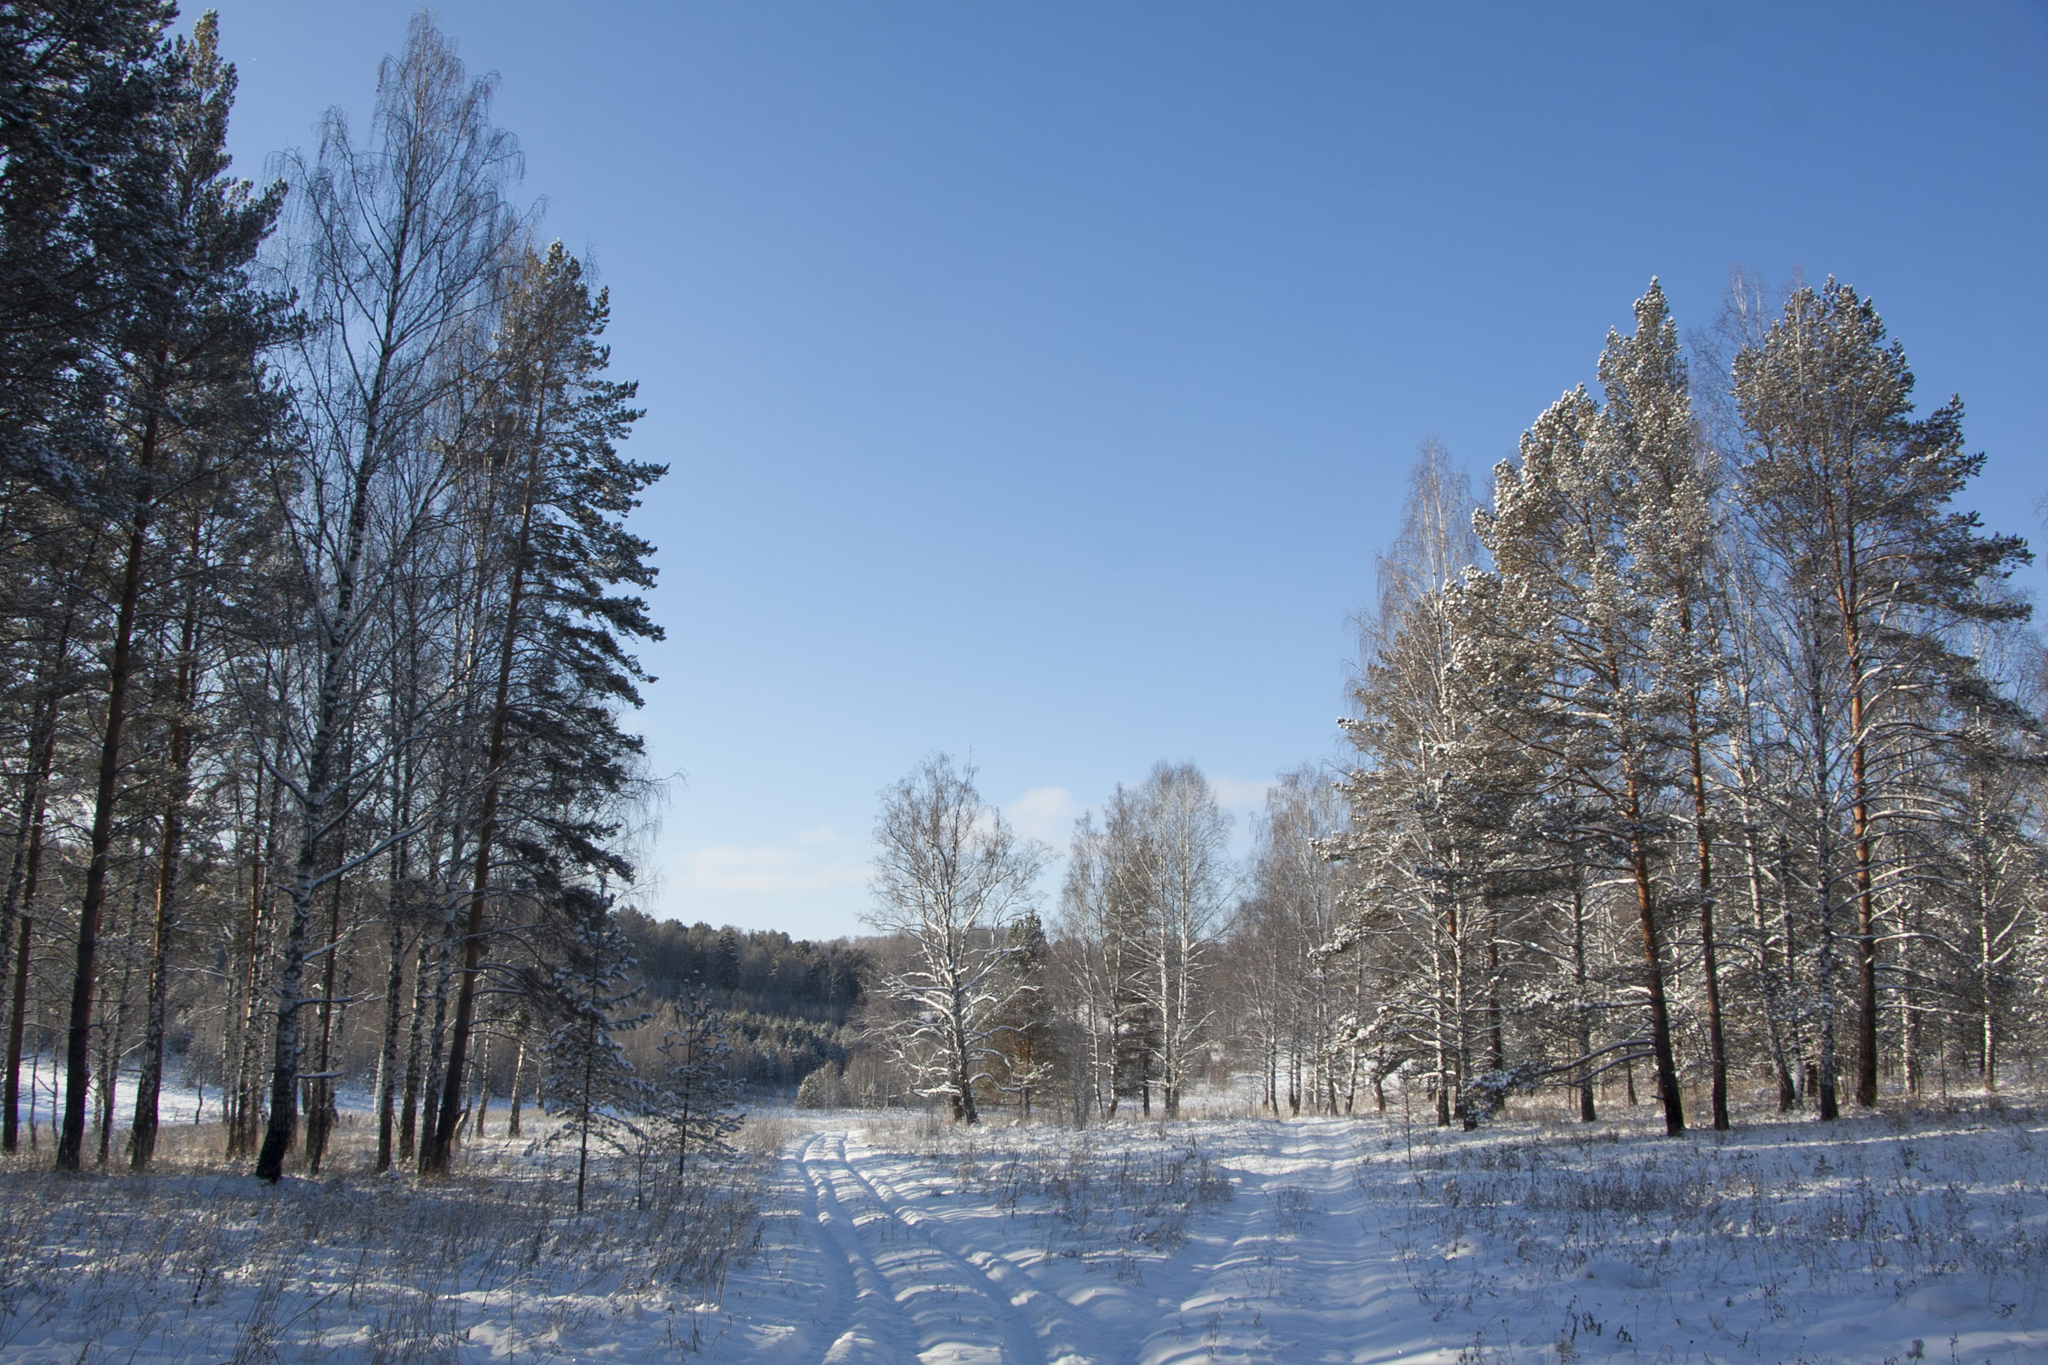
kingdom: Plantae
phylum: Tracheophyta
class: Pinopsida
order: Pinales
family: Pinaceae
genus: Pinus
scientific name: Pinus sylvestris
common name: Scots pine
